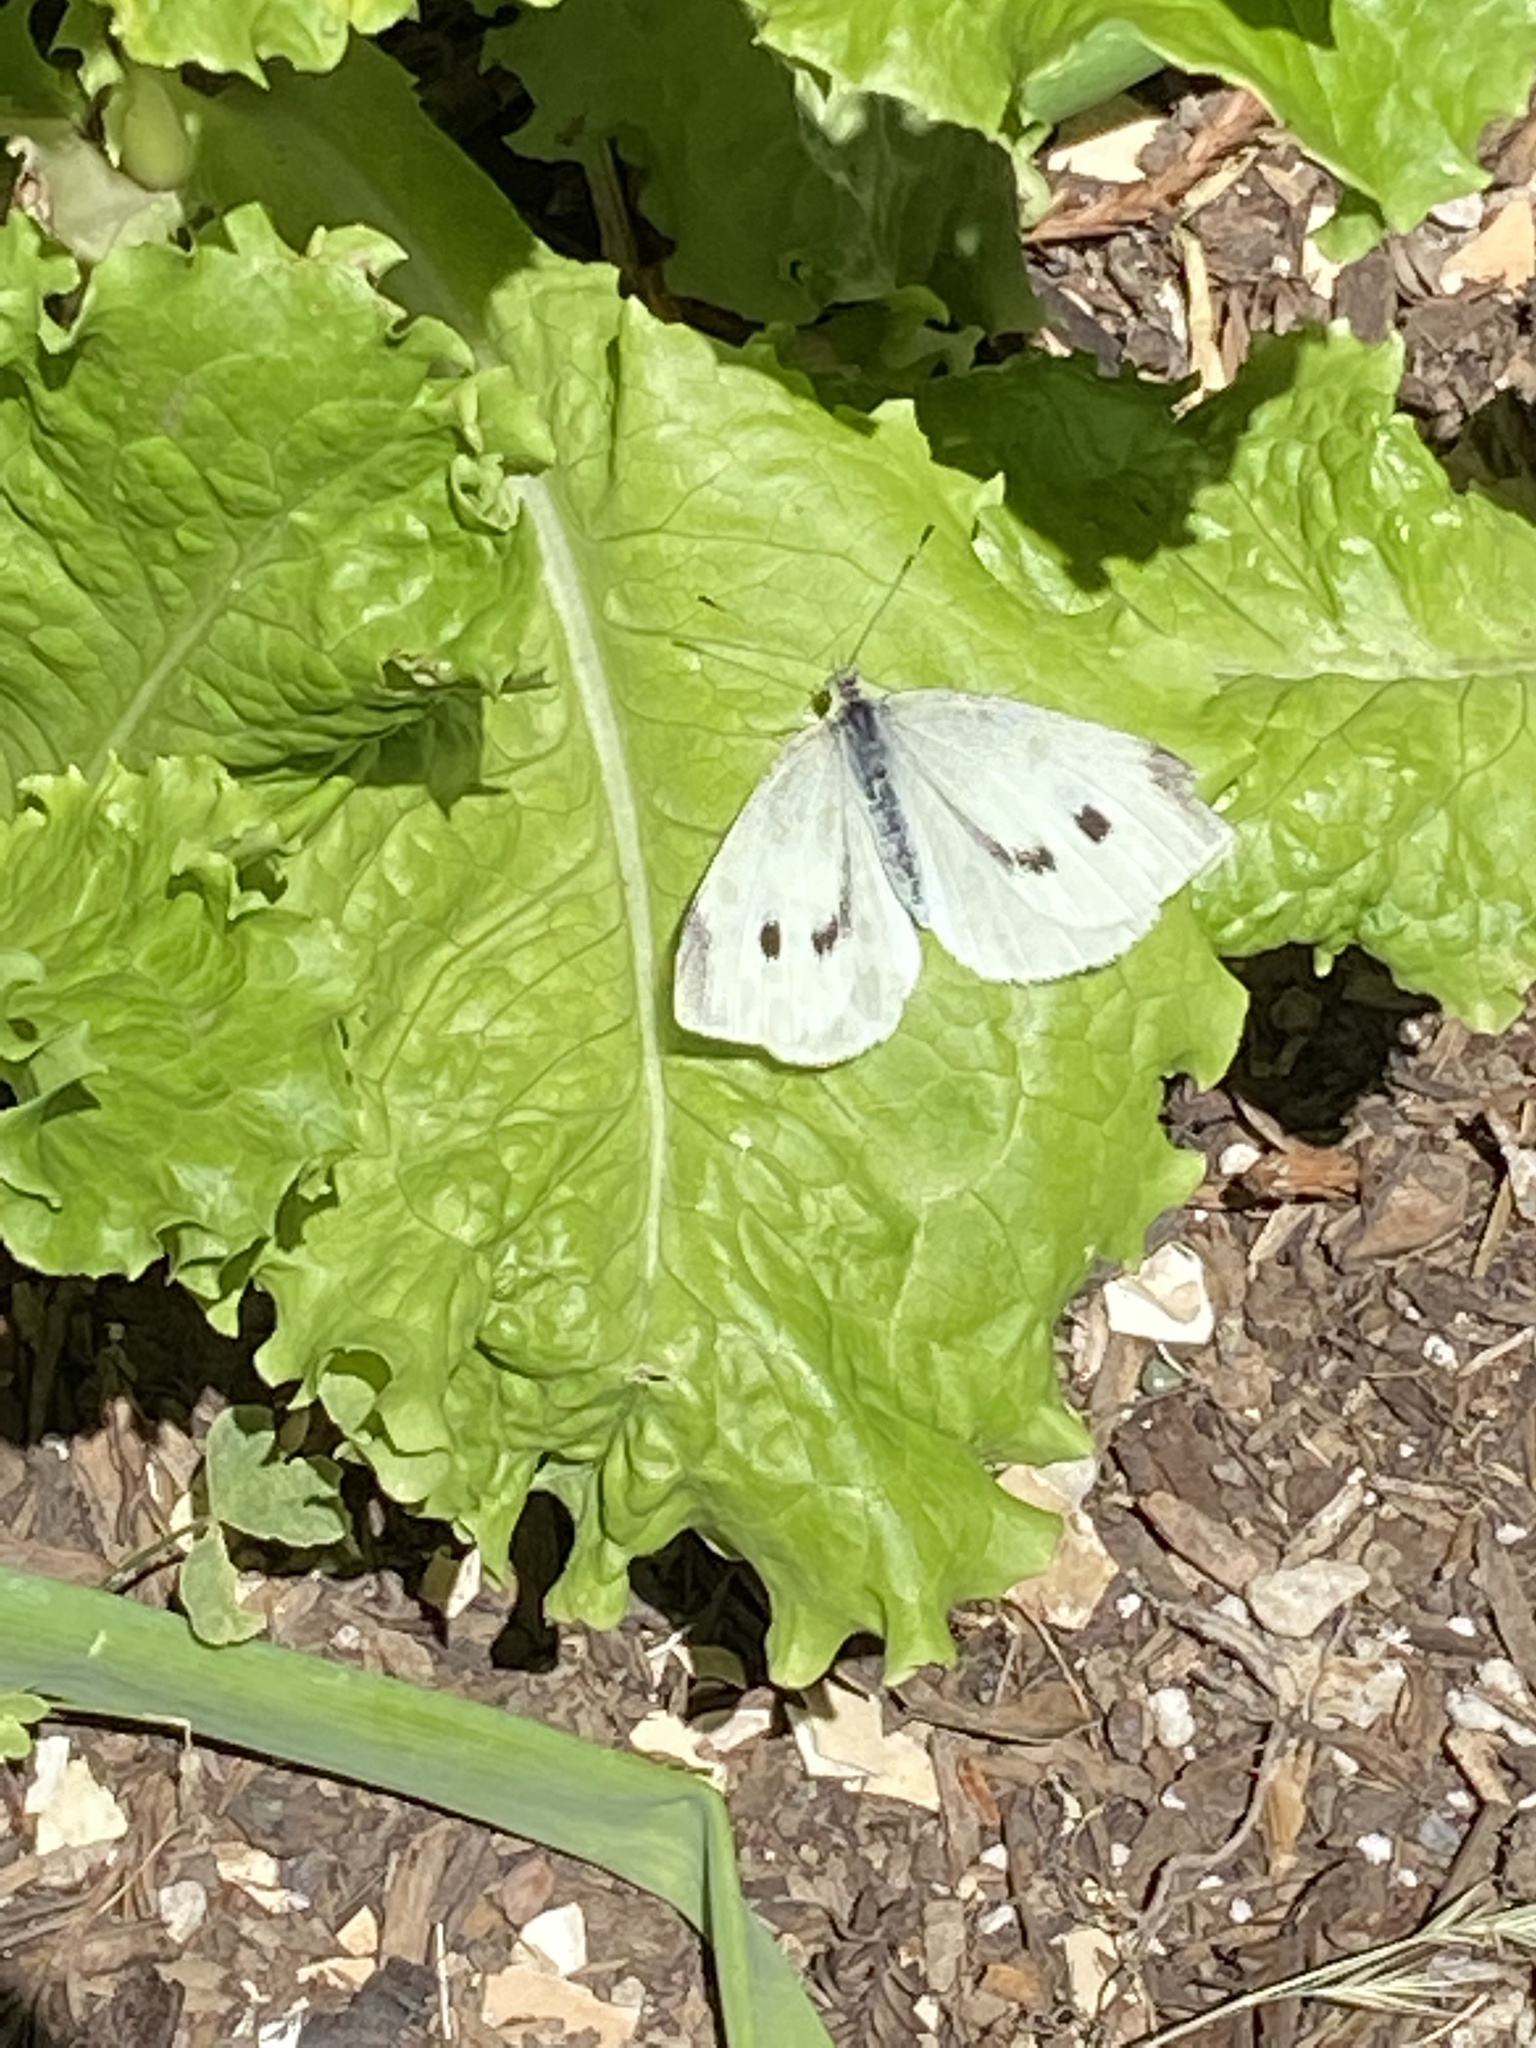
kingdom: Animalia
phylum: Arthropoda
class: Insecta
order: Lepidoptera
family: Pieridae
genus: Pieris
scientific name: Pieris rapae
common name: Small white
